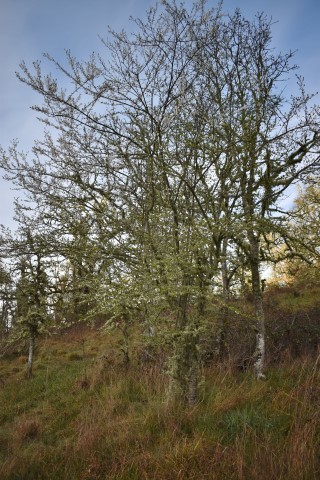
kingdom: Plantae
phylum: Tracheophyta
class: Magnoliopsida
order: Rosales
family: Rosaceae
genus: Prunus
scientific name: Prunus cerasifera
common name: Cherry plum
